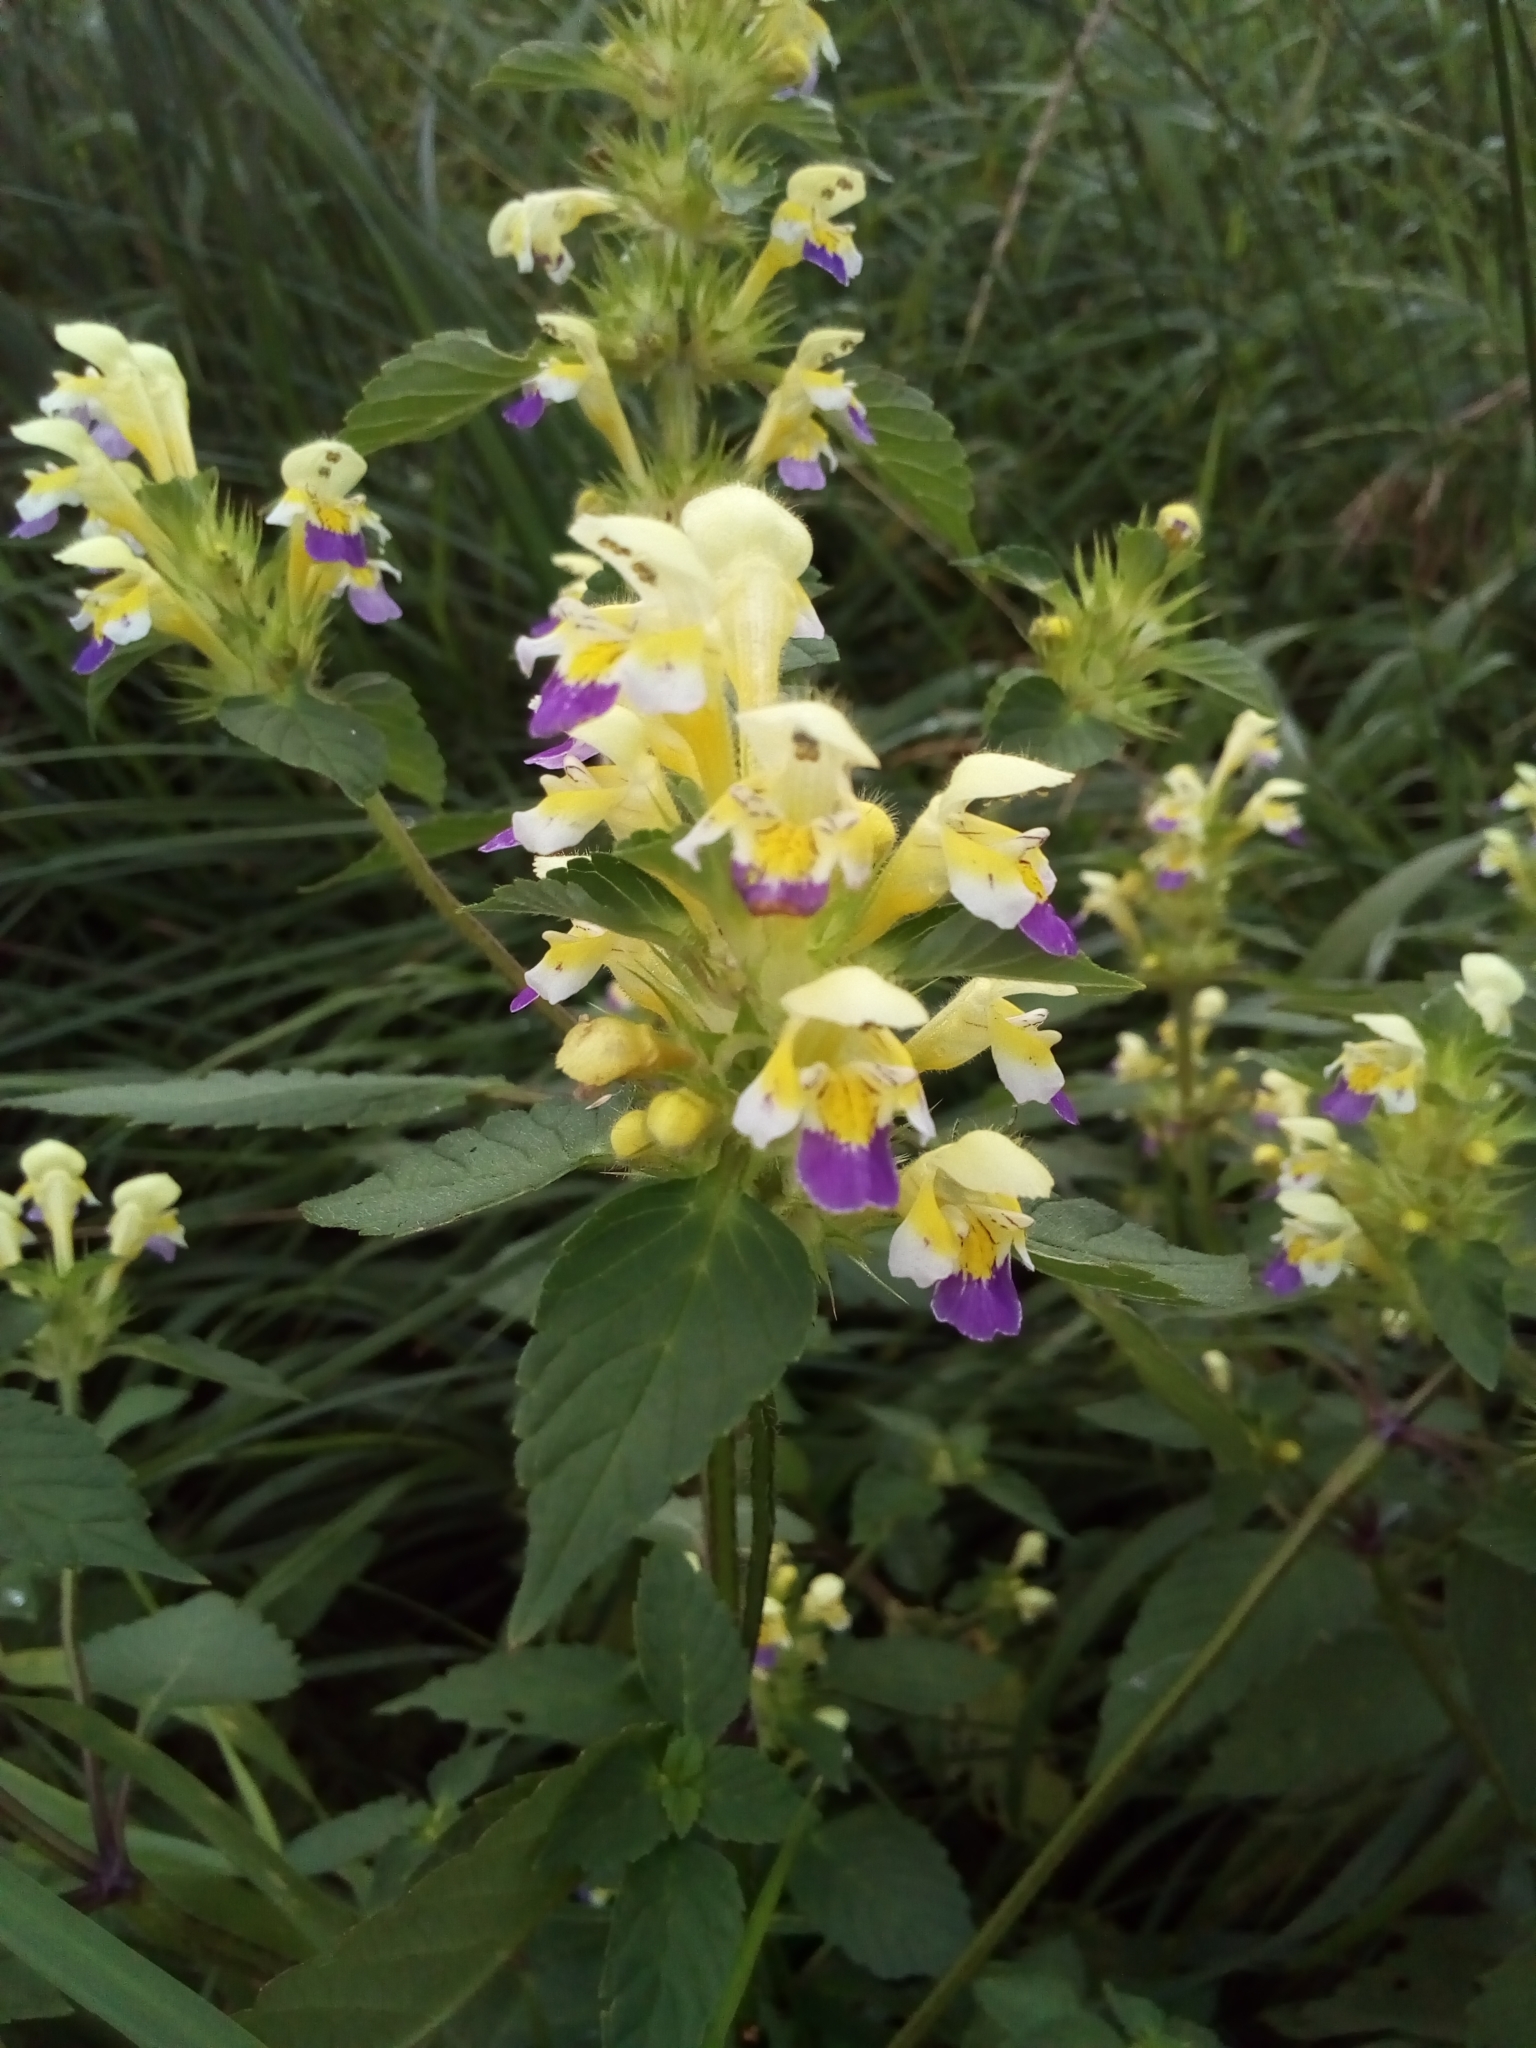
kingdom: Plantae
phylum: Tracheophyta
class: Magnoliopsida
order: Lamiales
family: Lamiaceae
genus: Galeopsis
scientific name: Galeopsis speciosa
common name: Large-flowered hemp-nettle
